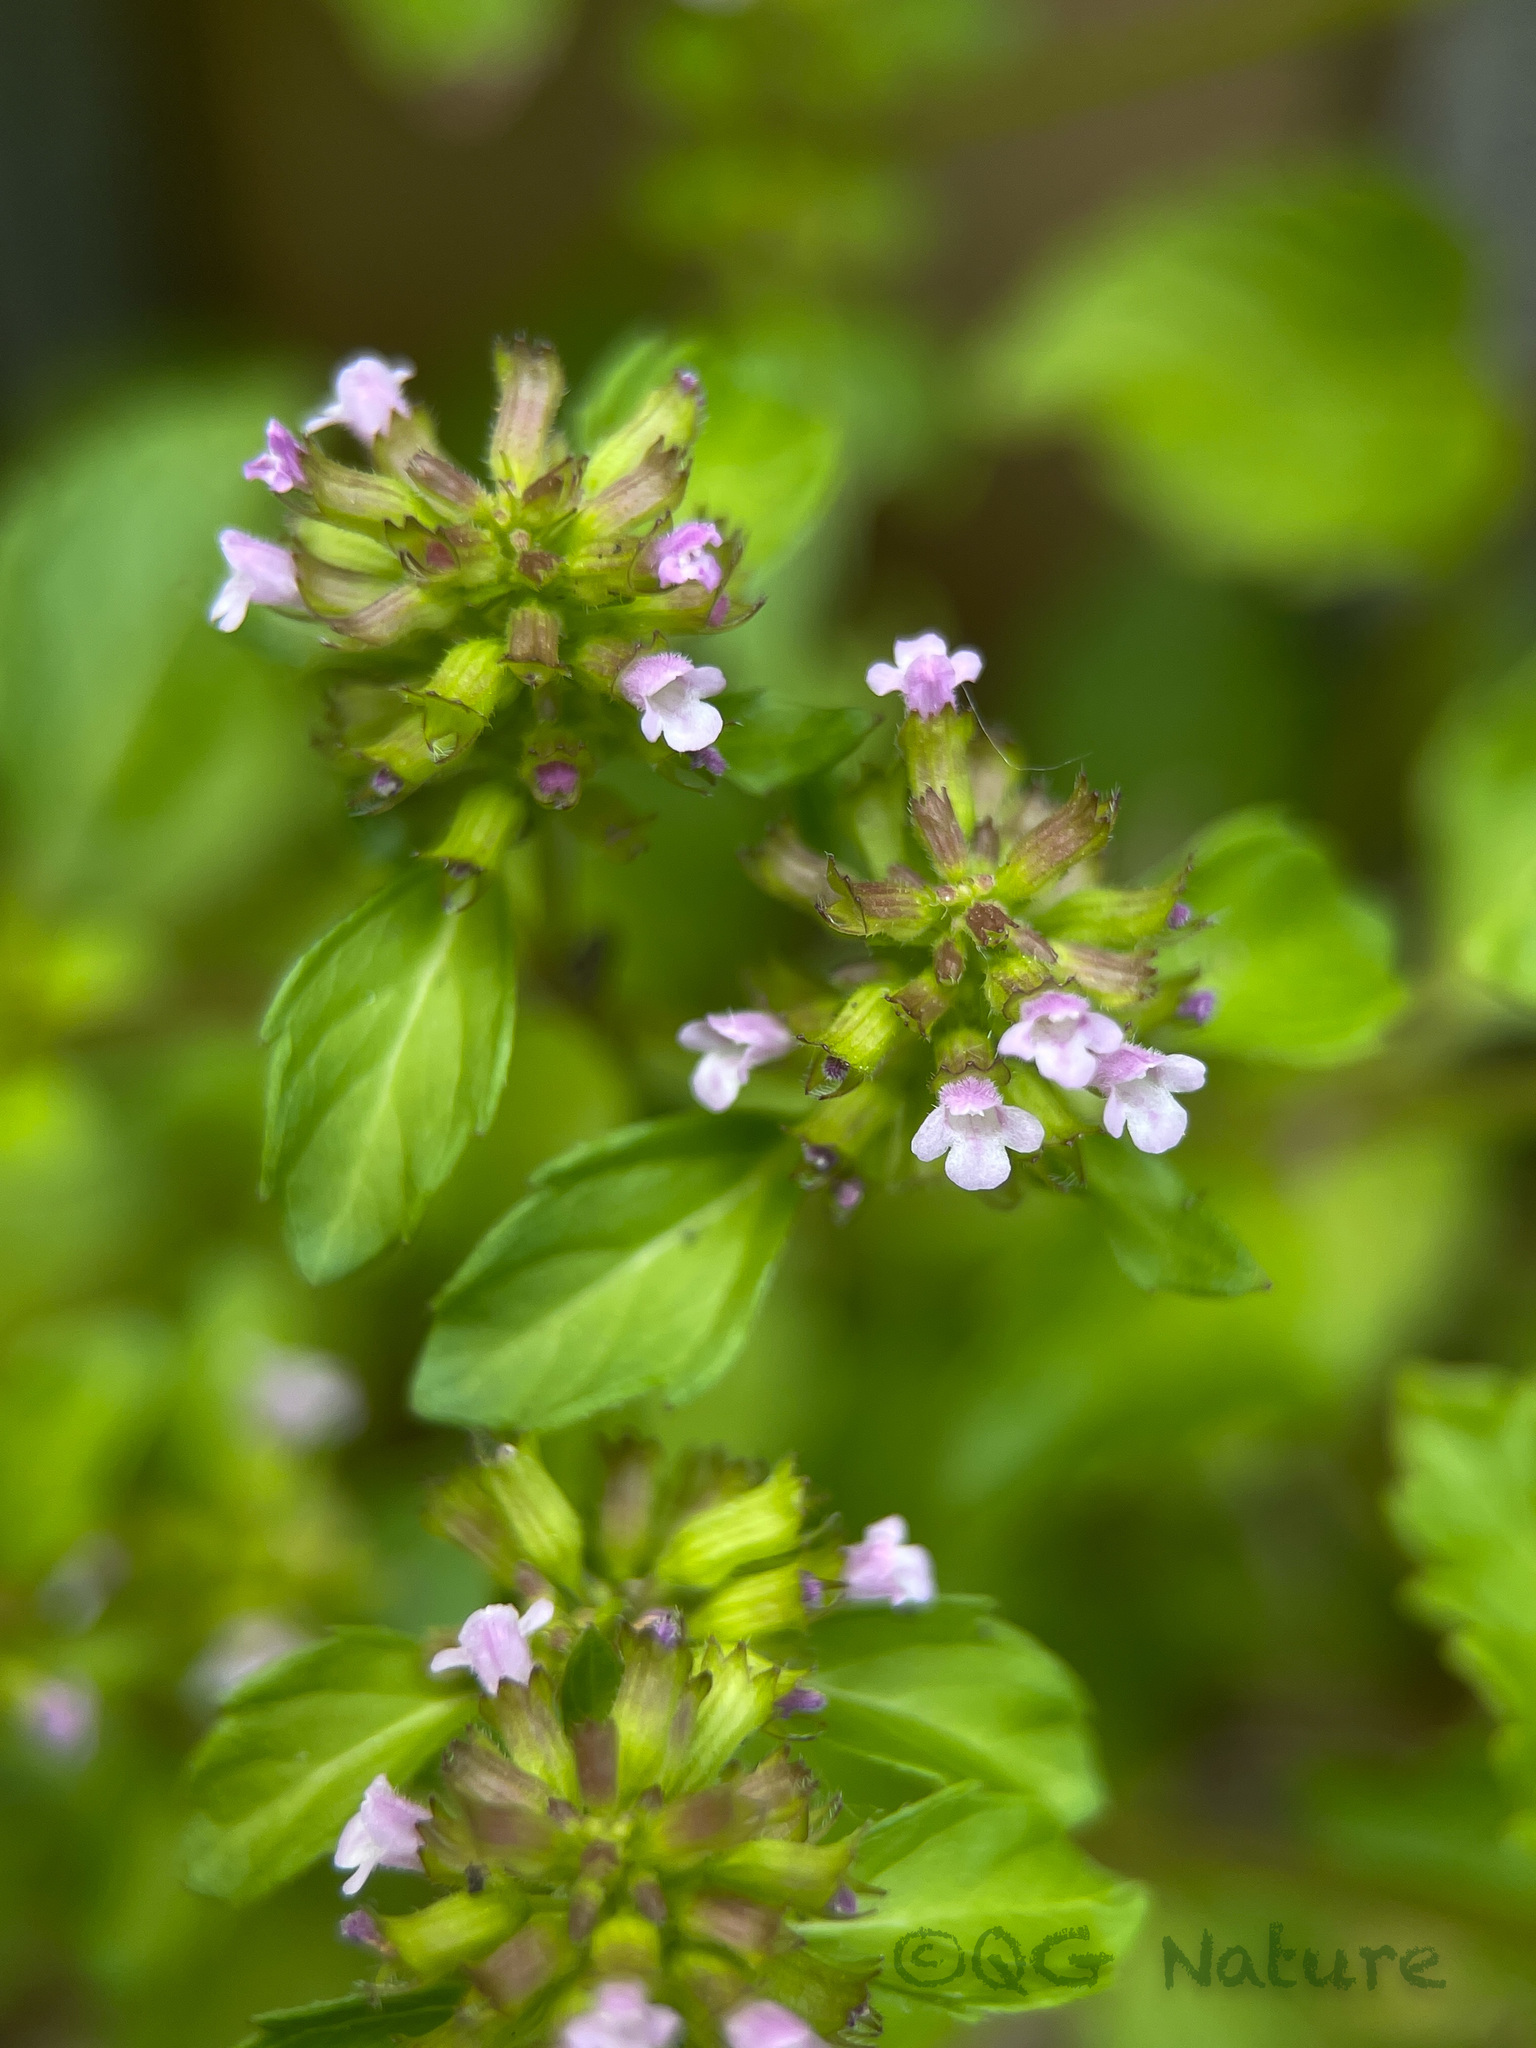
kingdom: Plantae
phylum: Tracheophyta
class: Magnoliopsida
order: Lamiales
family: Lamiaceae
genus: Clinopodium
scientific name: Clinopodium gracile
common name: Slender wild basil
